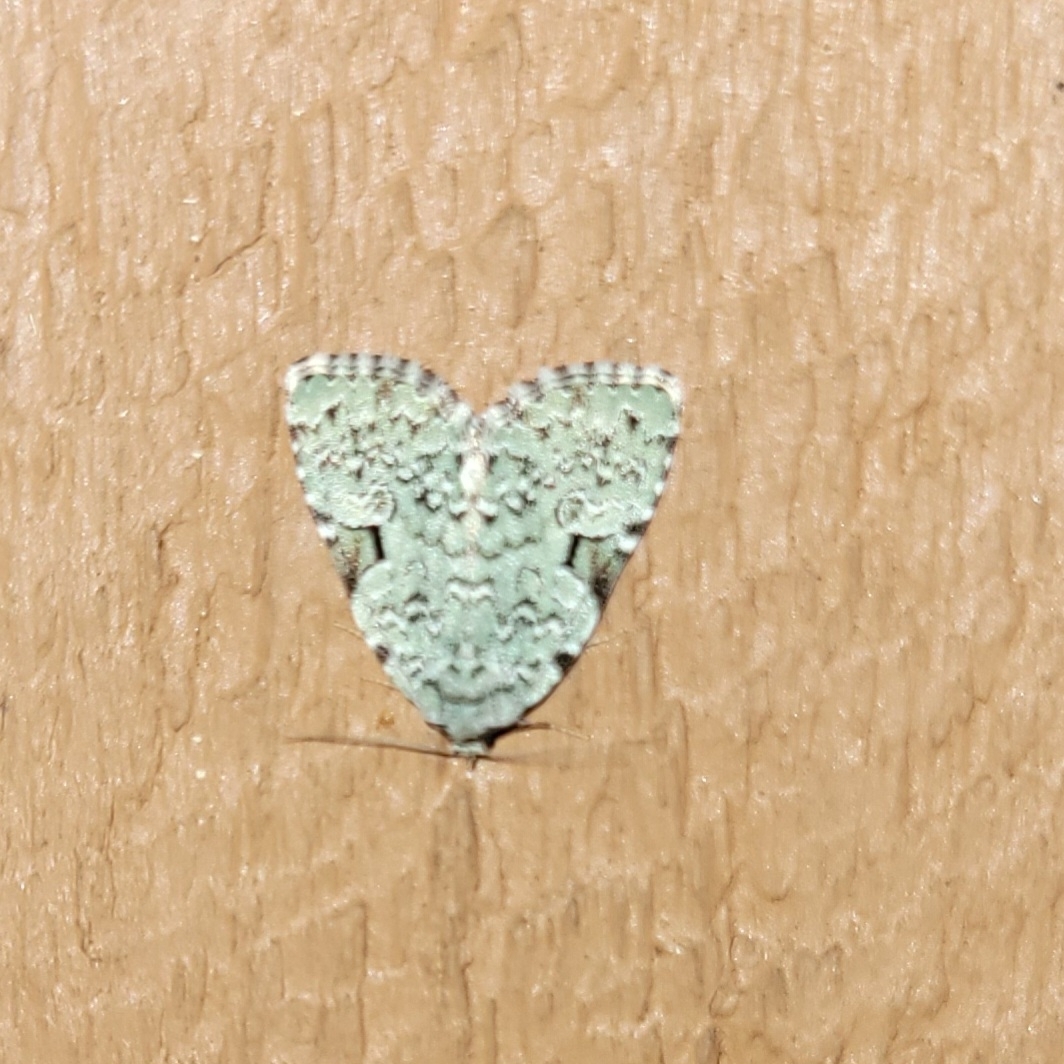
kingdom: Animalia
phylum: Arthropoda
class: Insecta
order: Lepidoptera
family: Noctuidae
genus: Leuconycta
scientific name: Leuconycta diphteroides
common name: Green leuconycta moth
